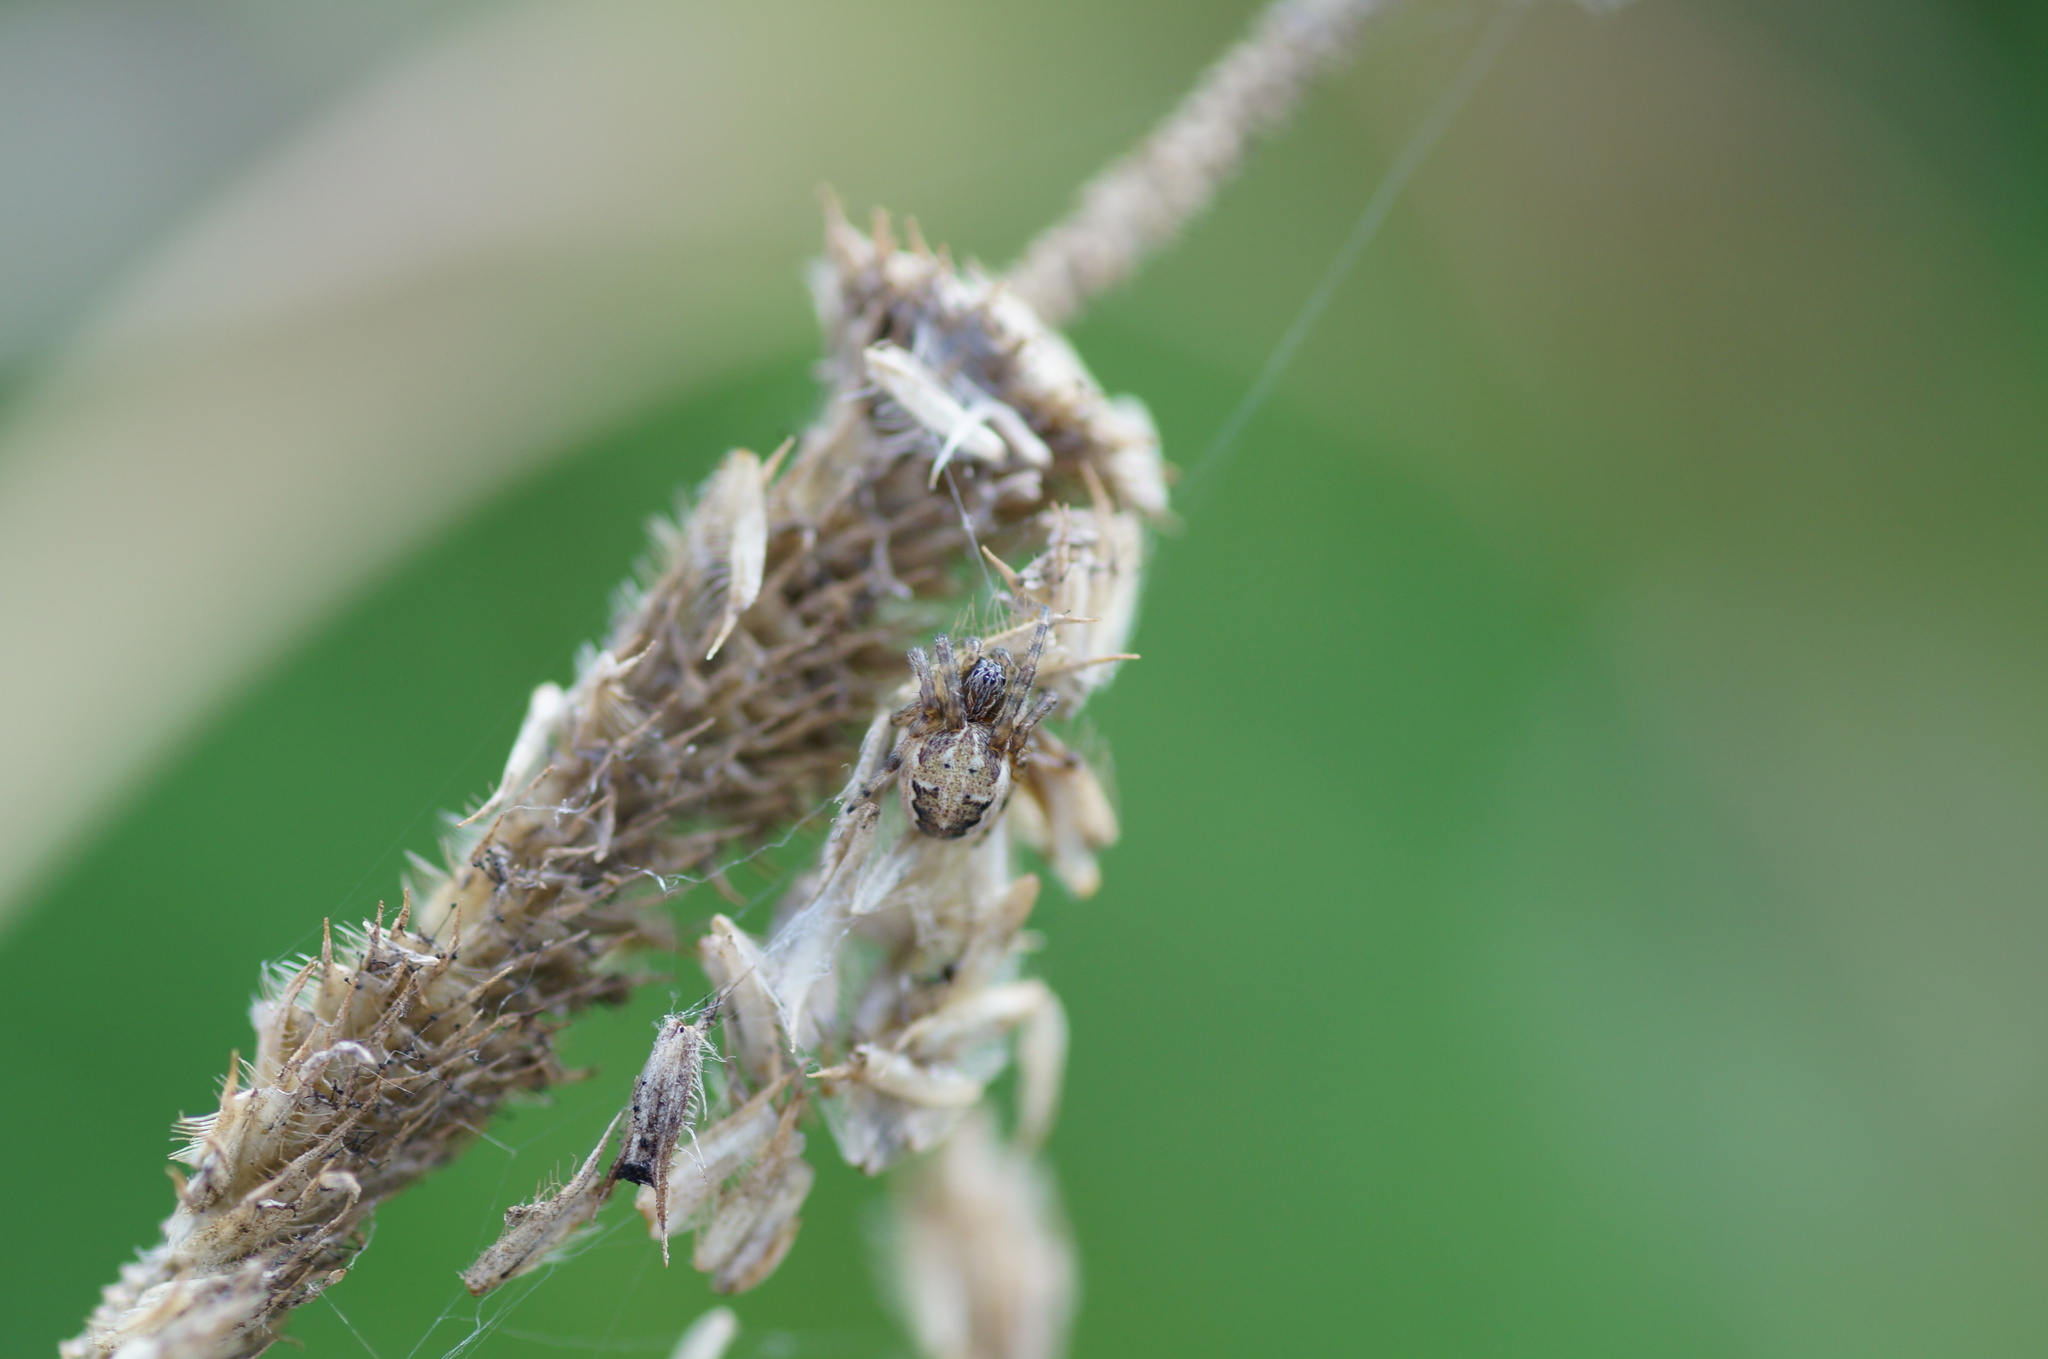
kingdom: Animalia
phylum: Arthropoda
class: Arachnida
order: Araneae
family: Araneidae
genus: Larinioides
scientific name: Larinioides
